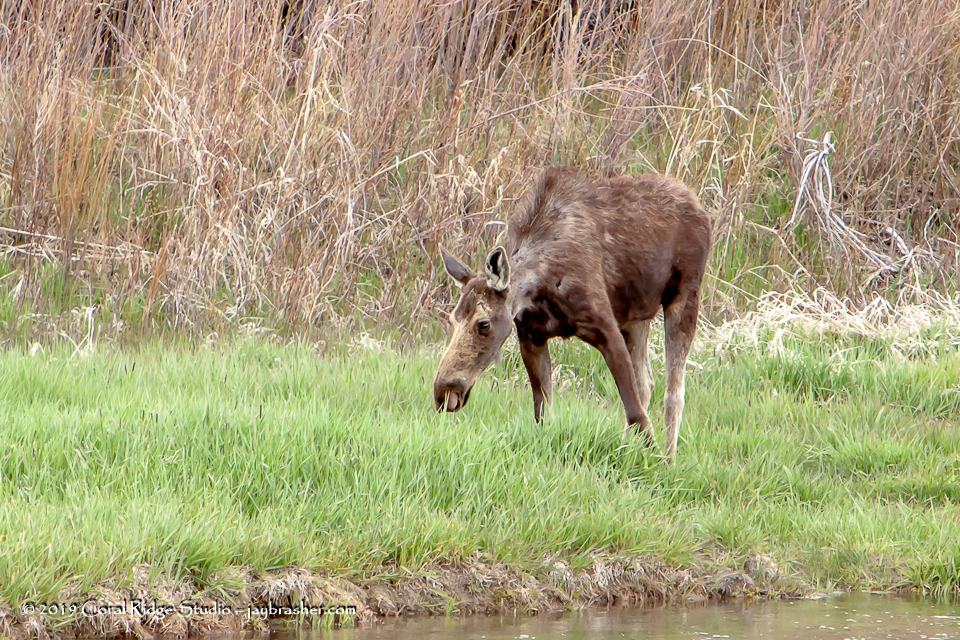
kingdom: Animalia
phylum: Chordata
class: Mammalia
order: Artiodactyla
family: Cervidae
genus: Alces
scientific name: Alces alces
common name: Moose
